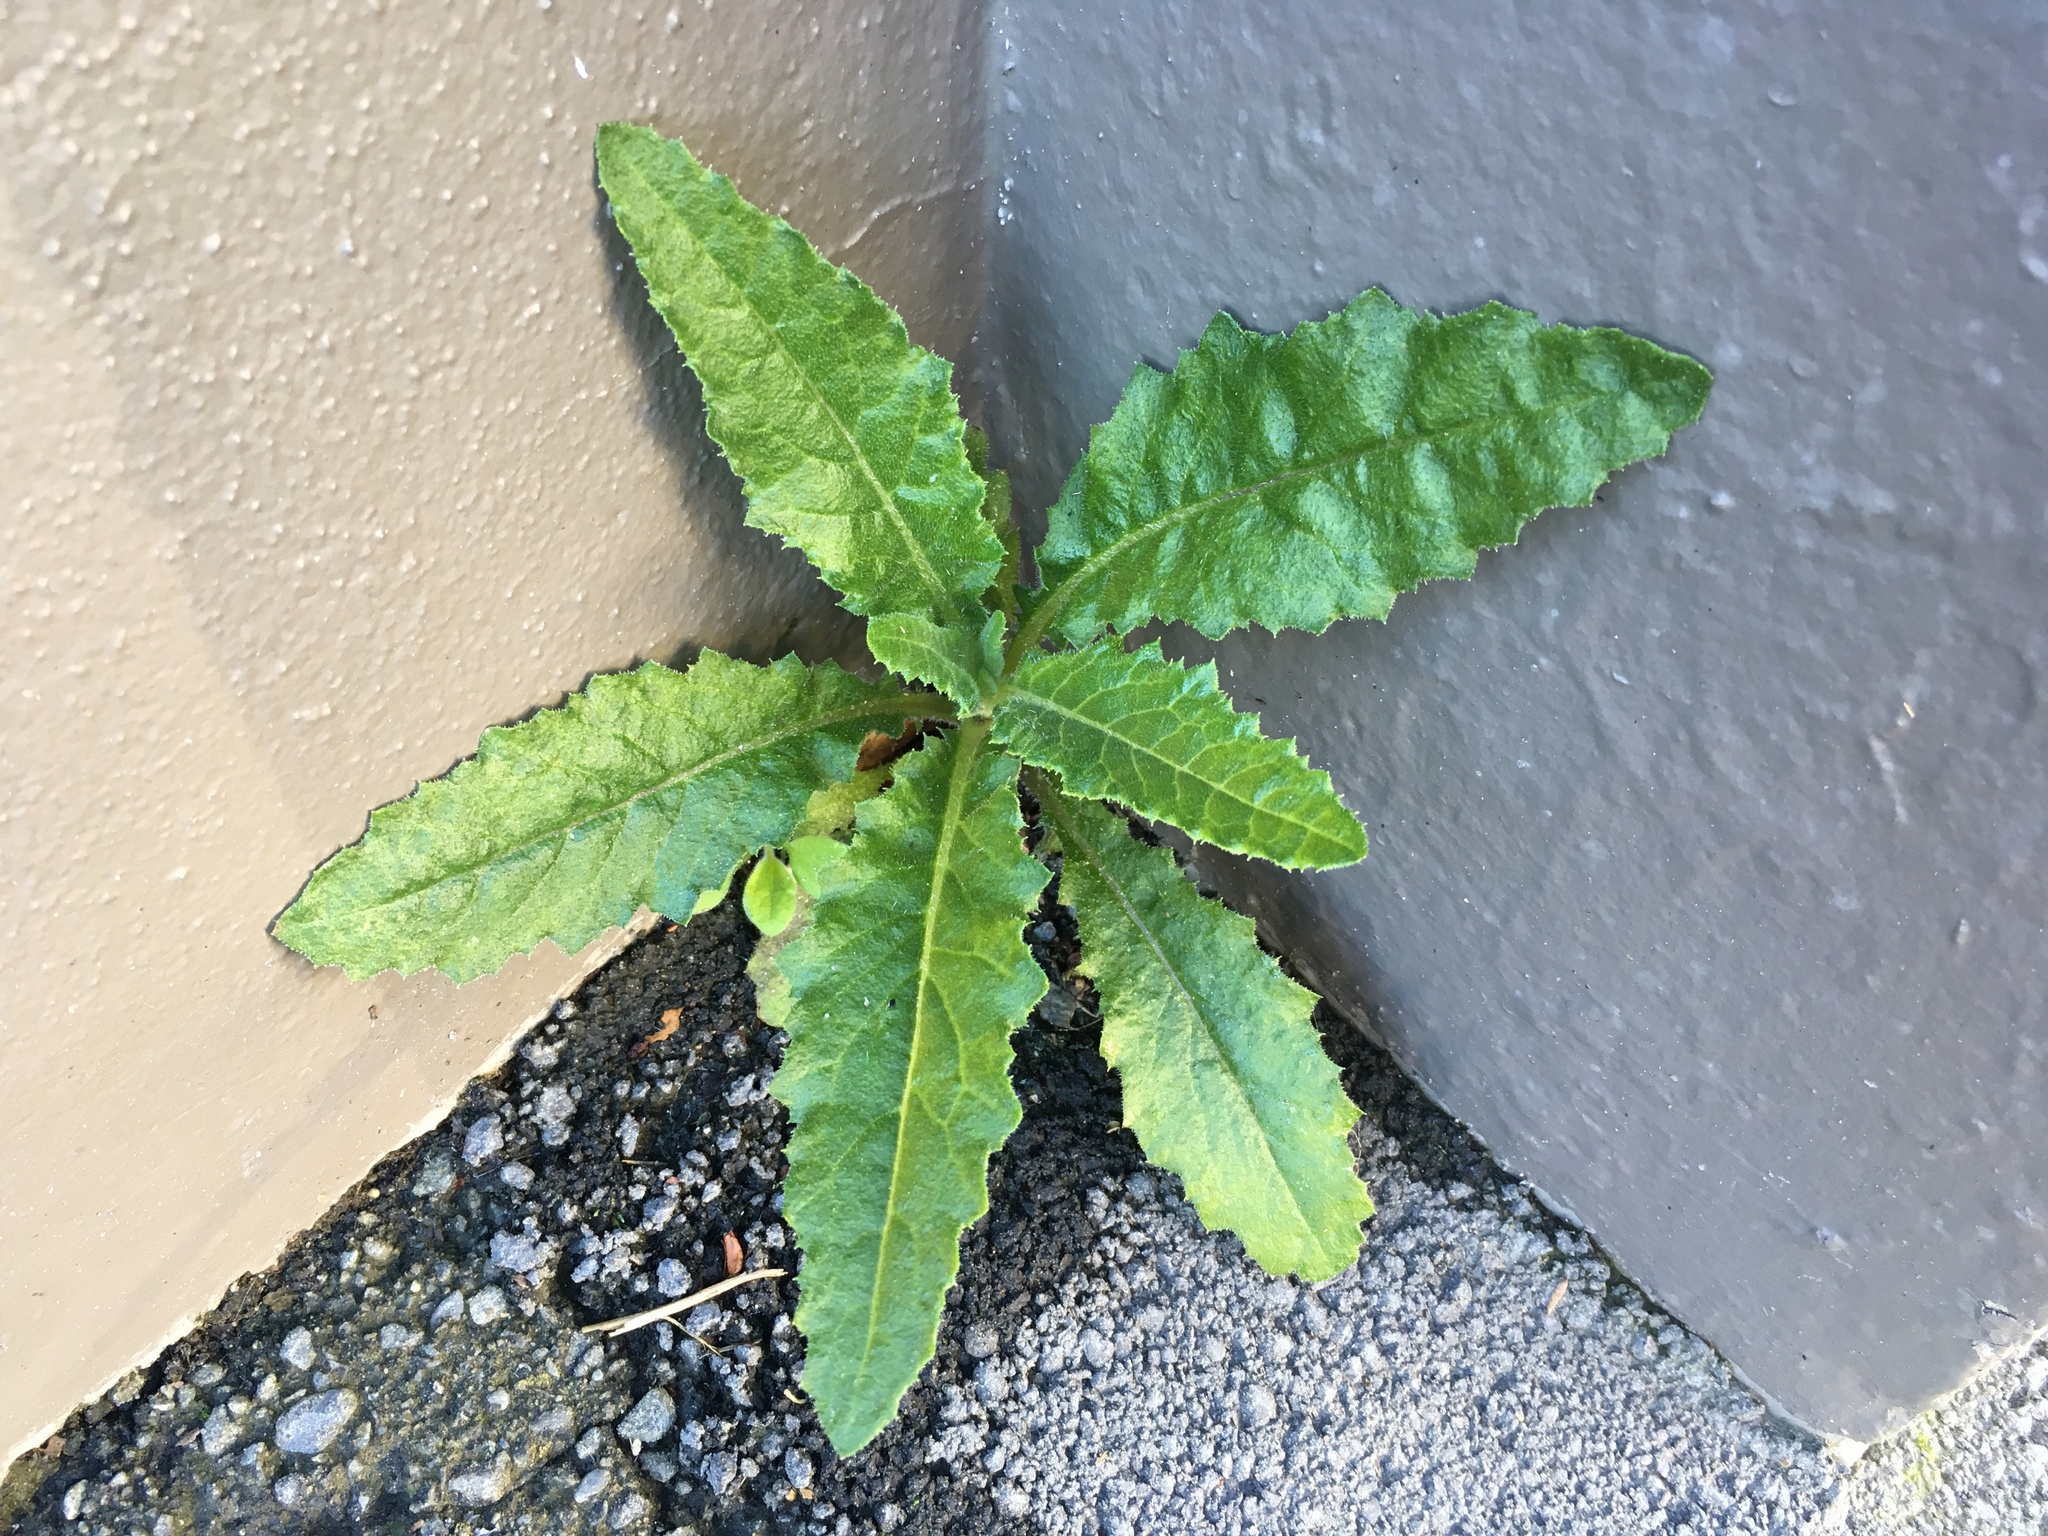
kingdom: Plantae
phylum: Tracheophyta
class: Magnoliopsida
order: Asterales
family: Asteraceae
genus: Senecio
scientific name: Senecio minimus
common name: Toothed fireweed
